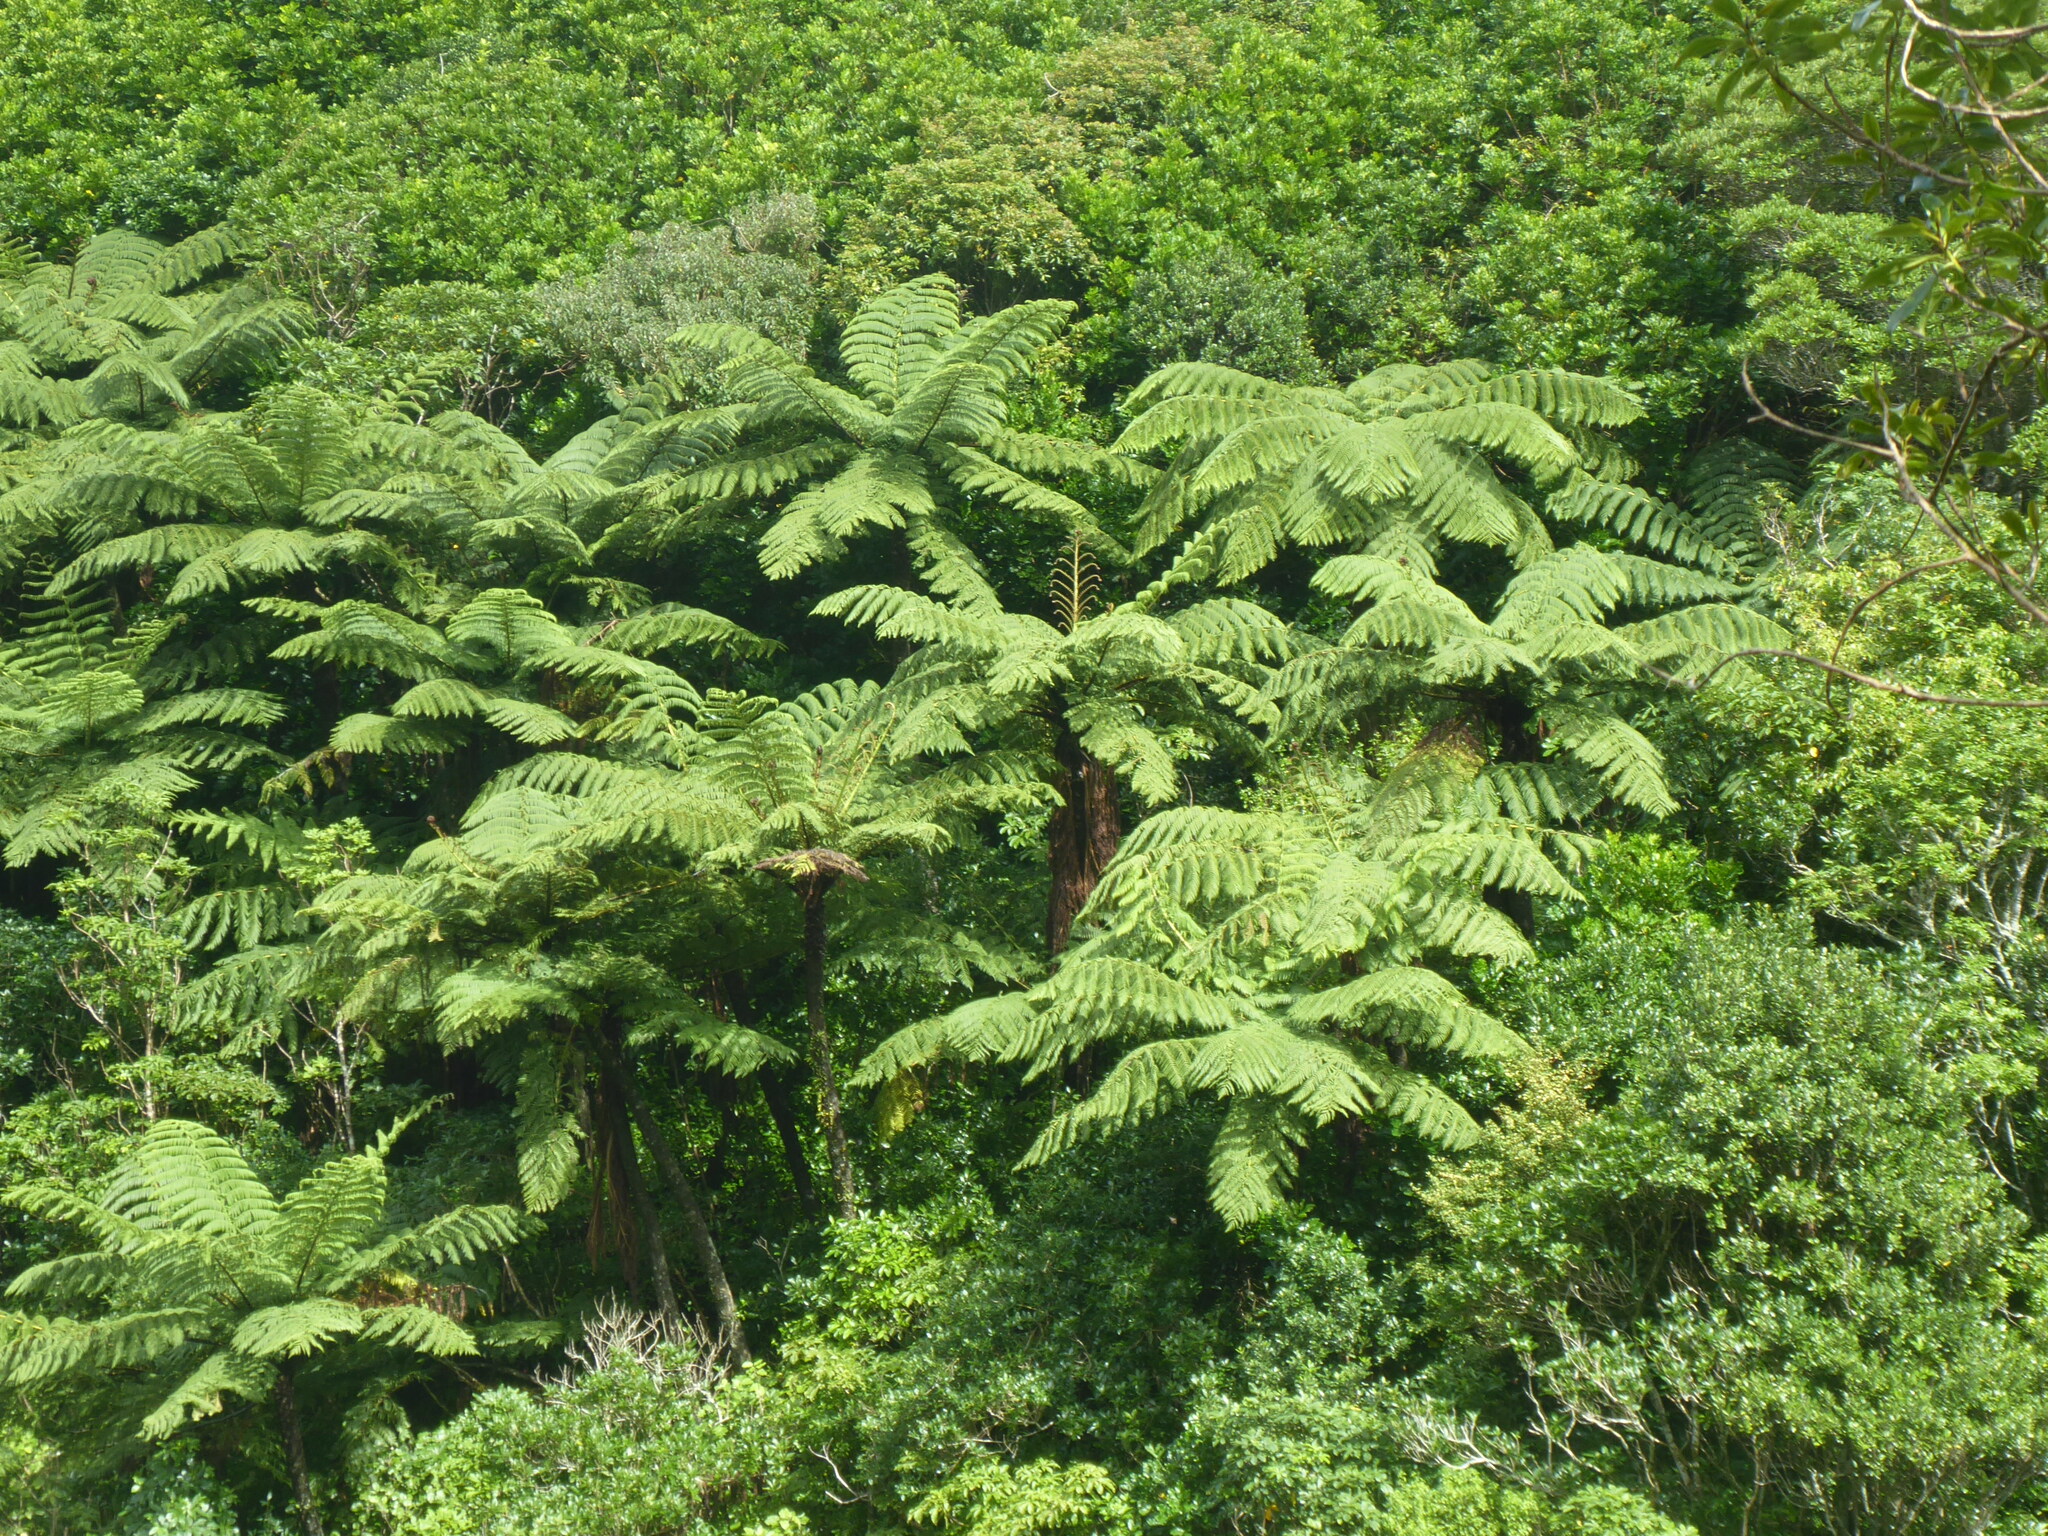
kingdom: Plantae
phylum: Tracheophyta
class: Polypodiopsida
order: Cyatheales
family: Cyatheaceae
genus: Sphaeropteris
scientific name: Sphaeropteris medullaris
